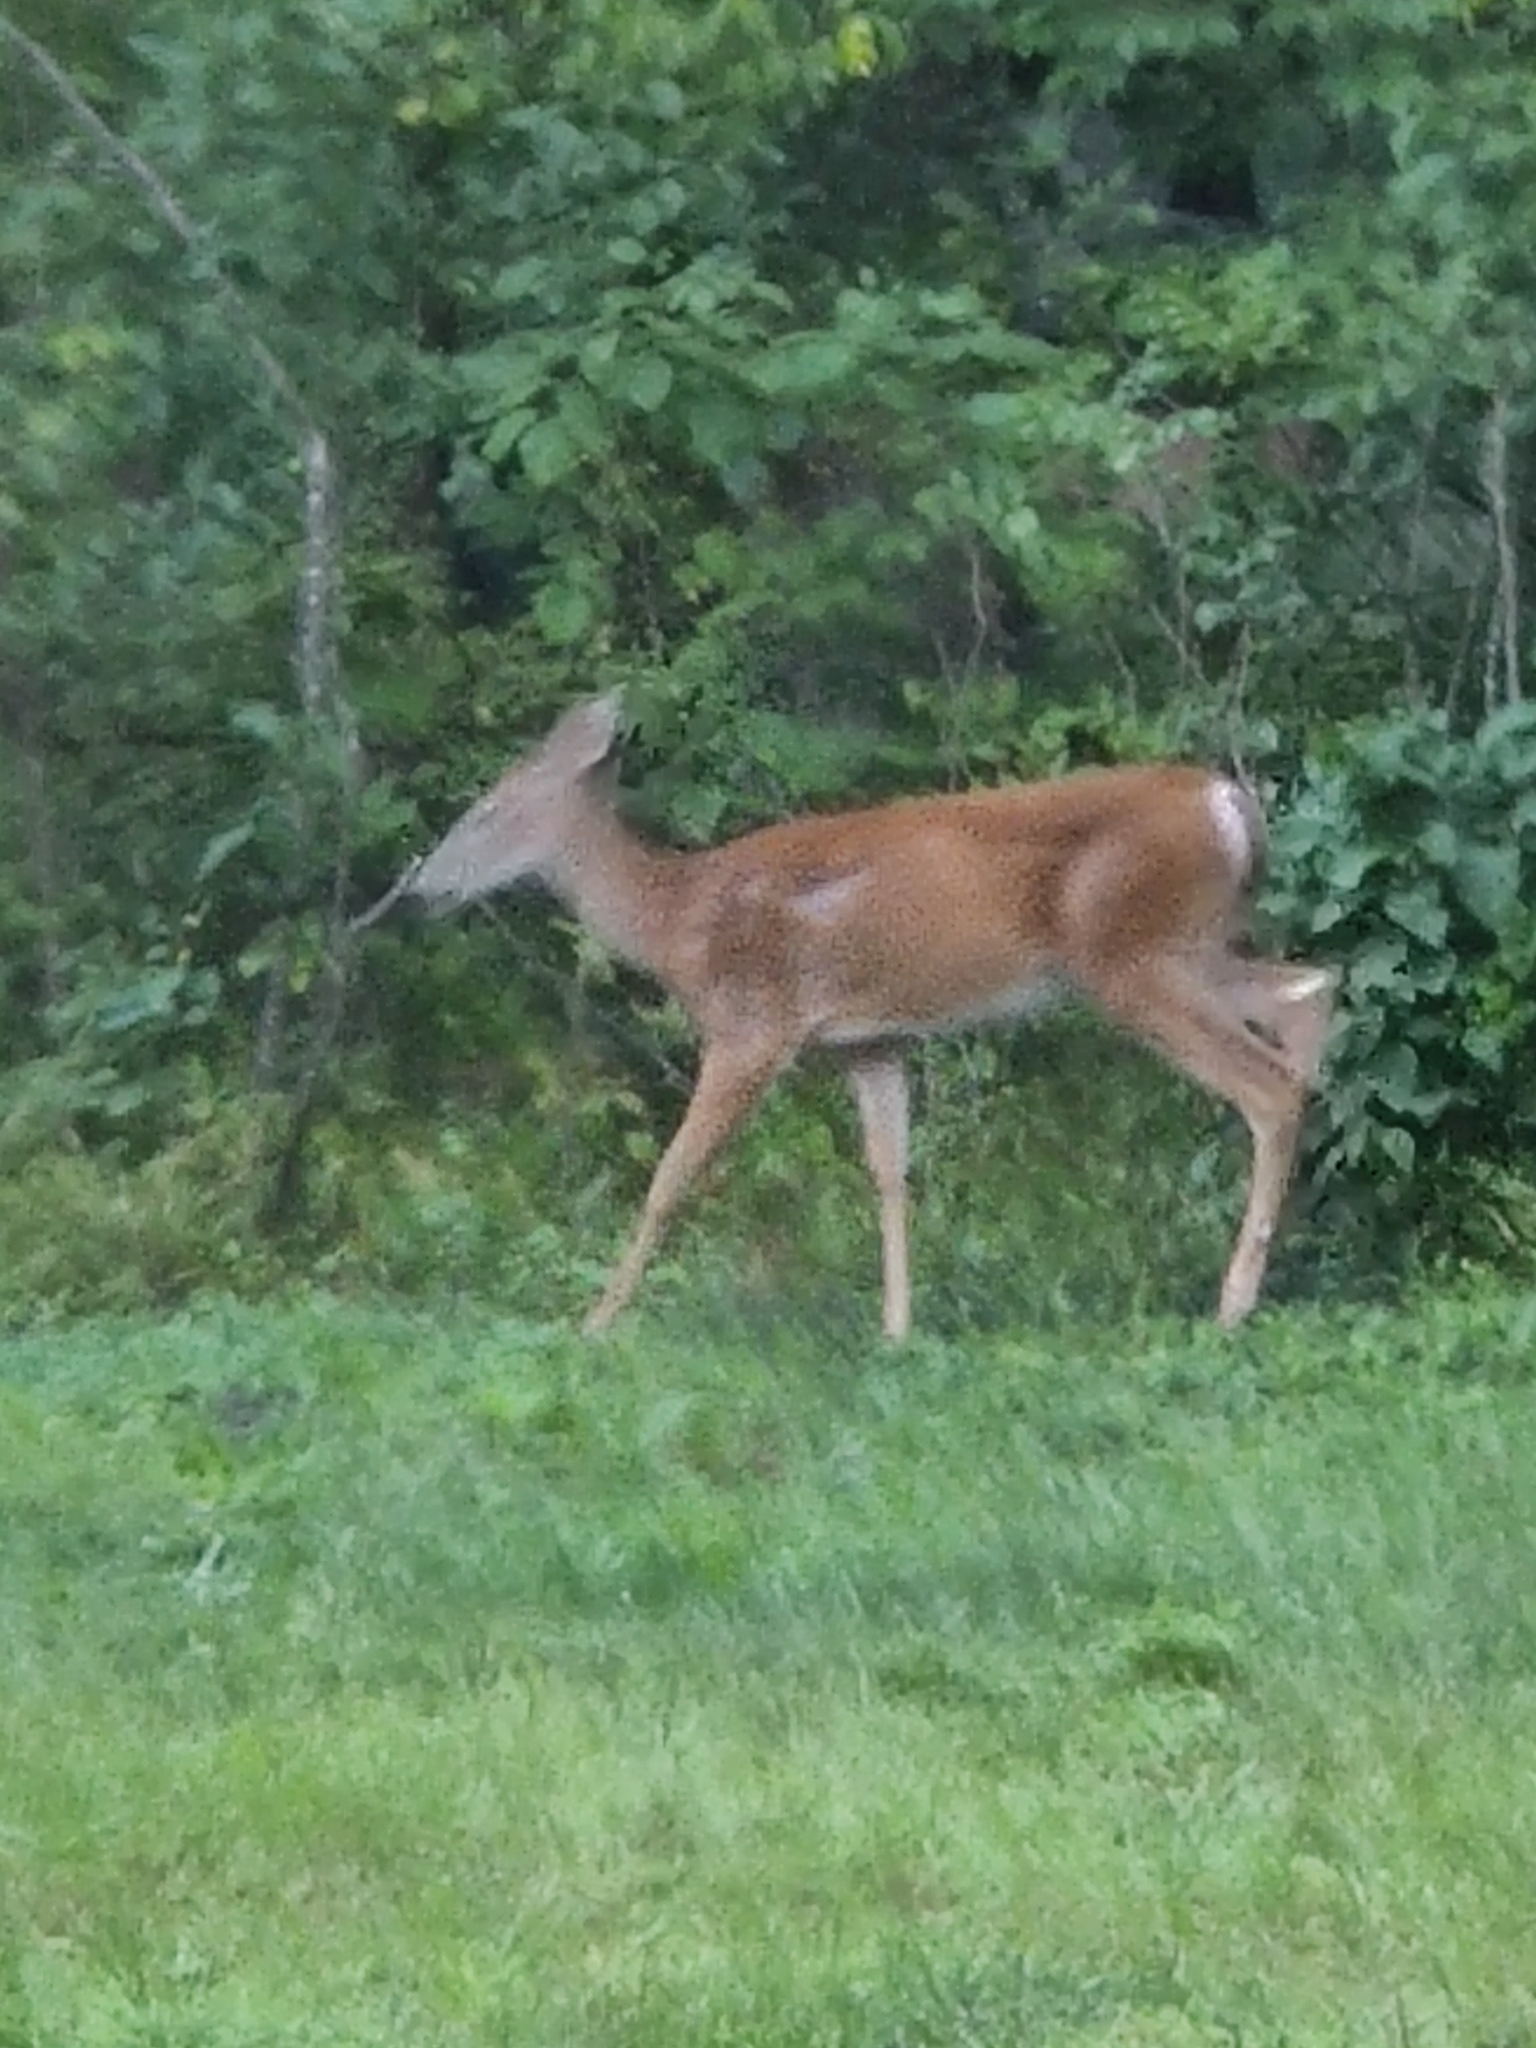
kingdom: Animalia
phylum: Chordata
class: Mammalia
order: Artiodactyla
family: Cervidae
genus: Odocoileus
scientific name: Odocoileus virginianus
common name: White-tailed deer
